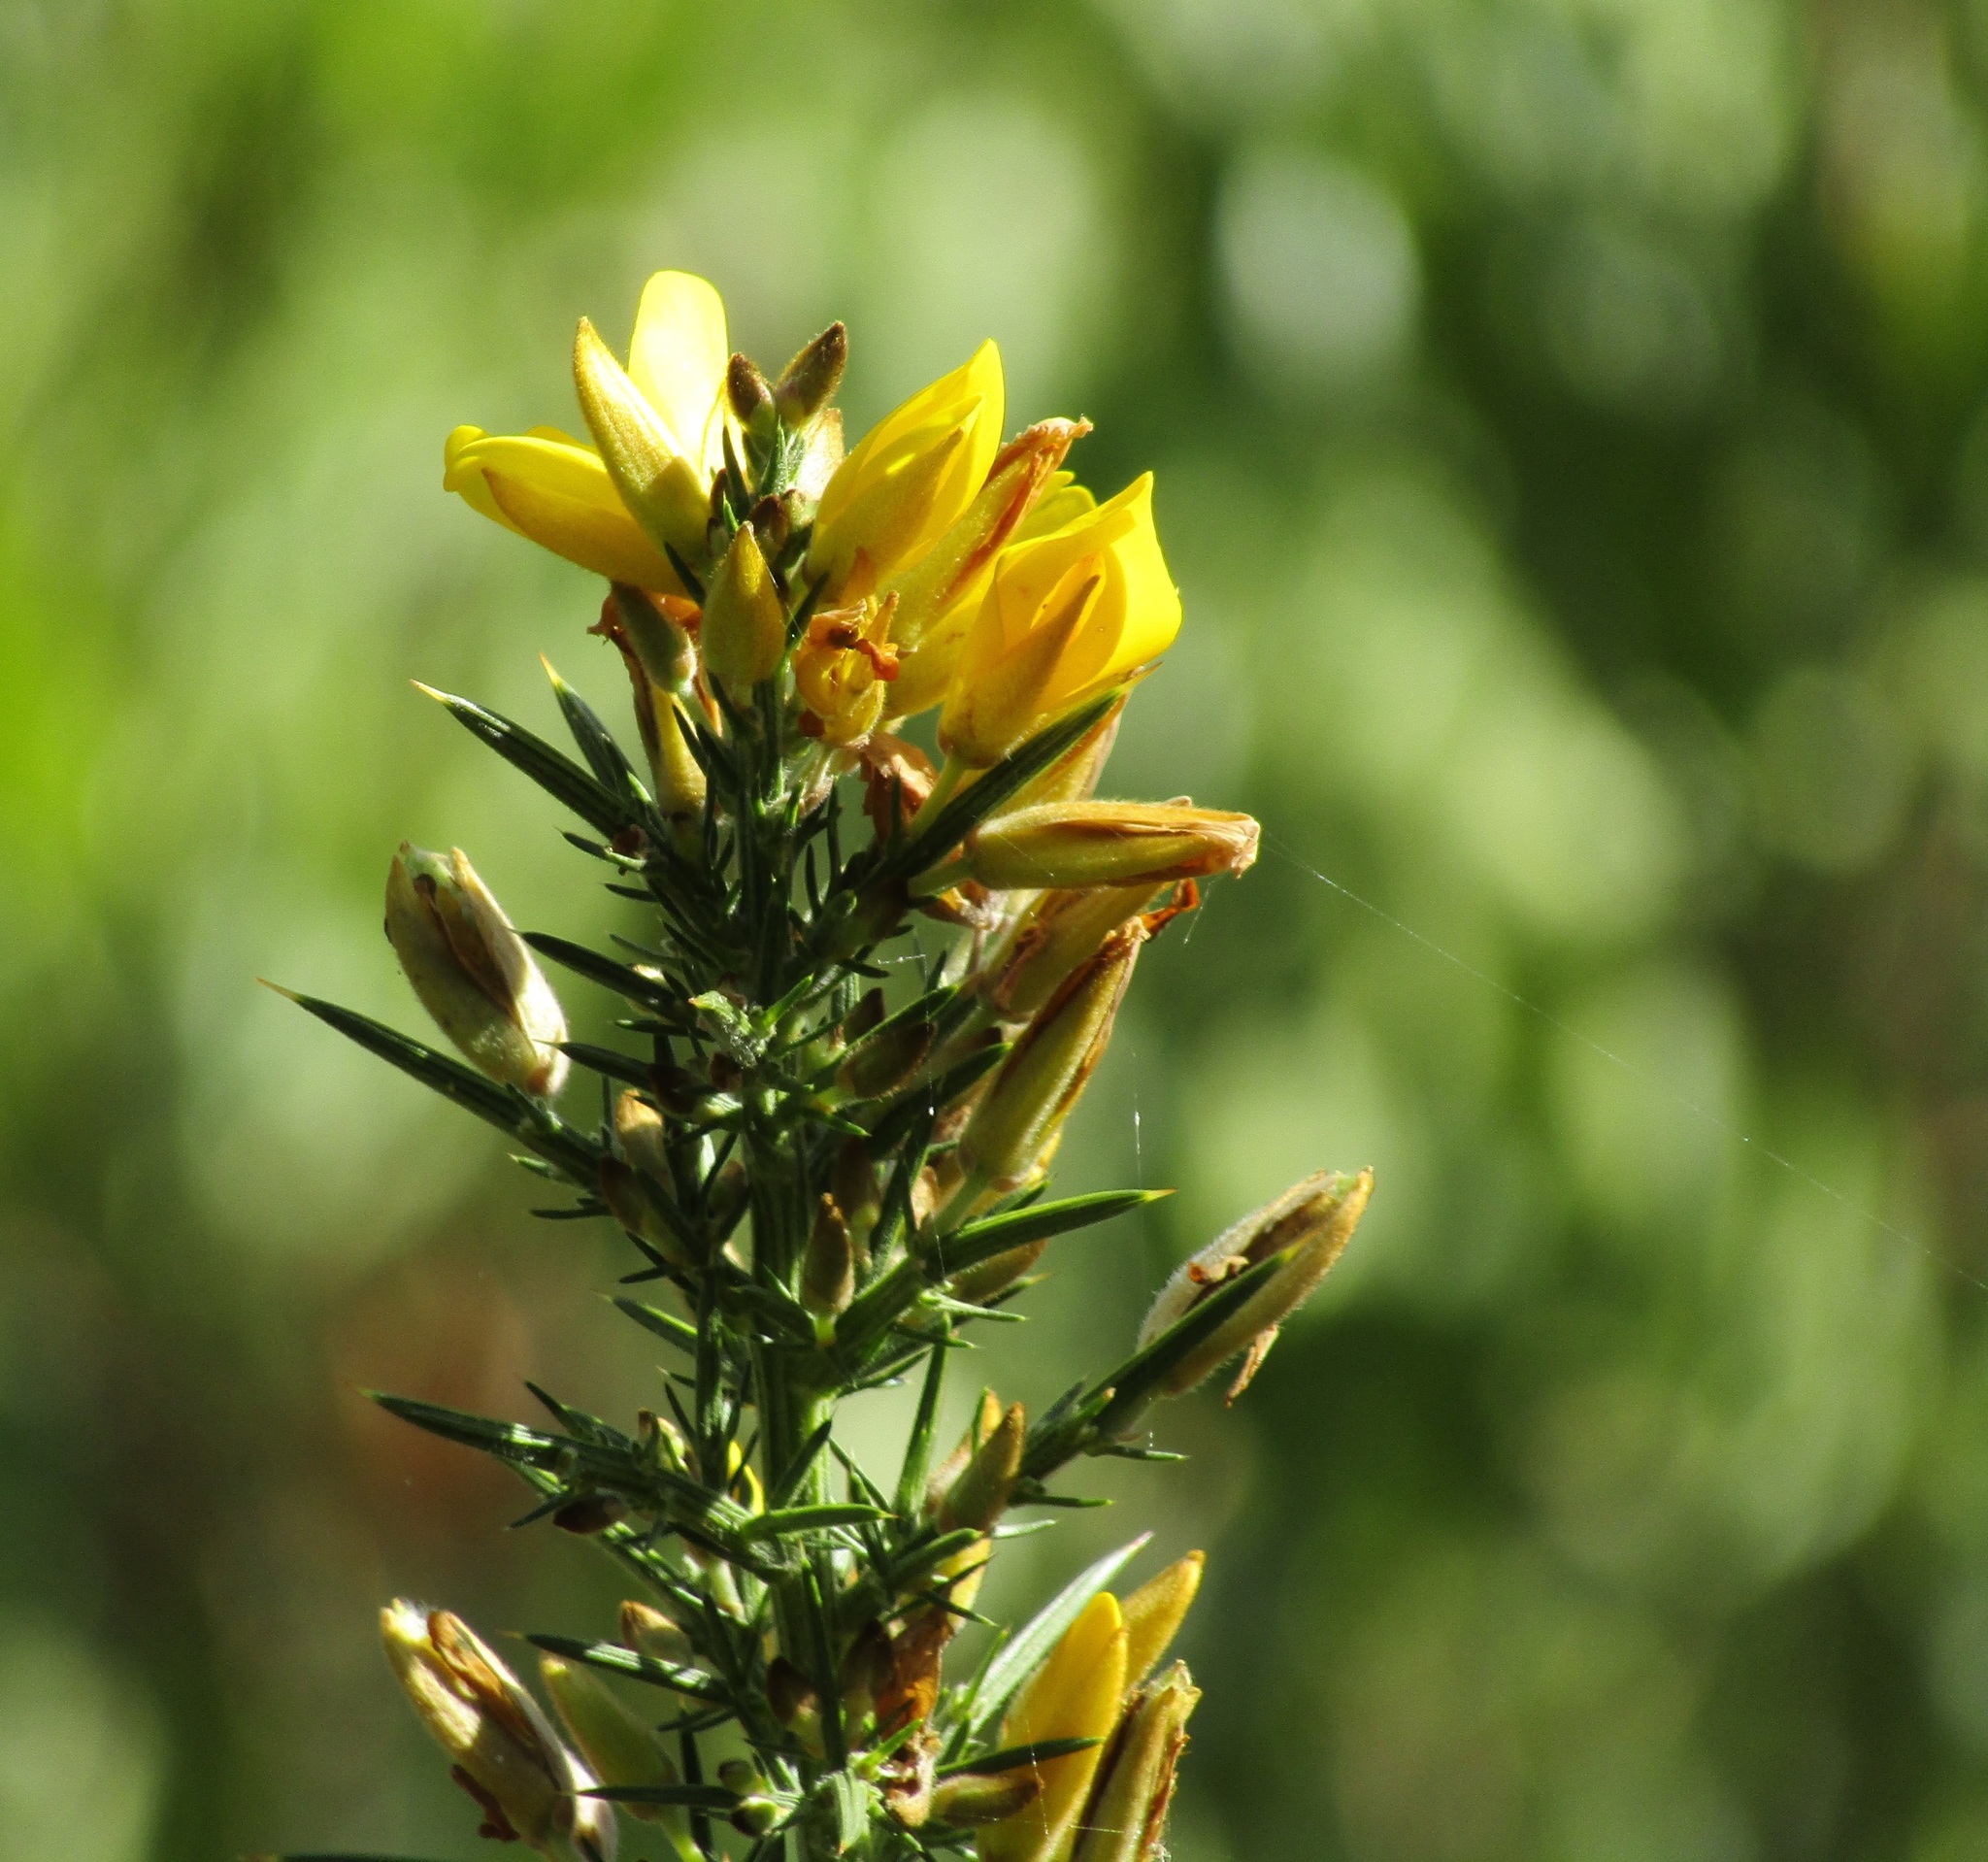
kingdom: Plantae
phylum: Tracheophyta
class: Magnoliopsida
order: Fabales
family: Fabaceae
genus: Ulex
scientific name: Ulex europaeus
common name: Common gorse
